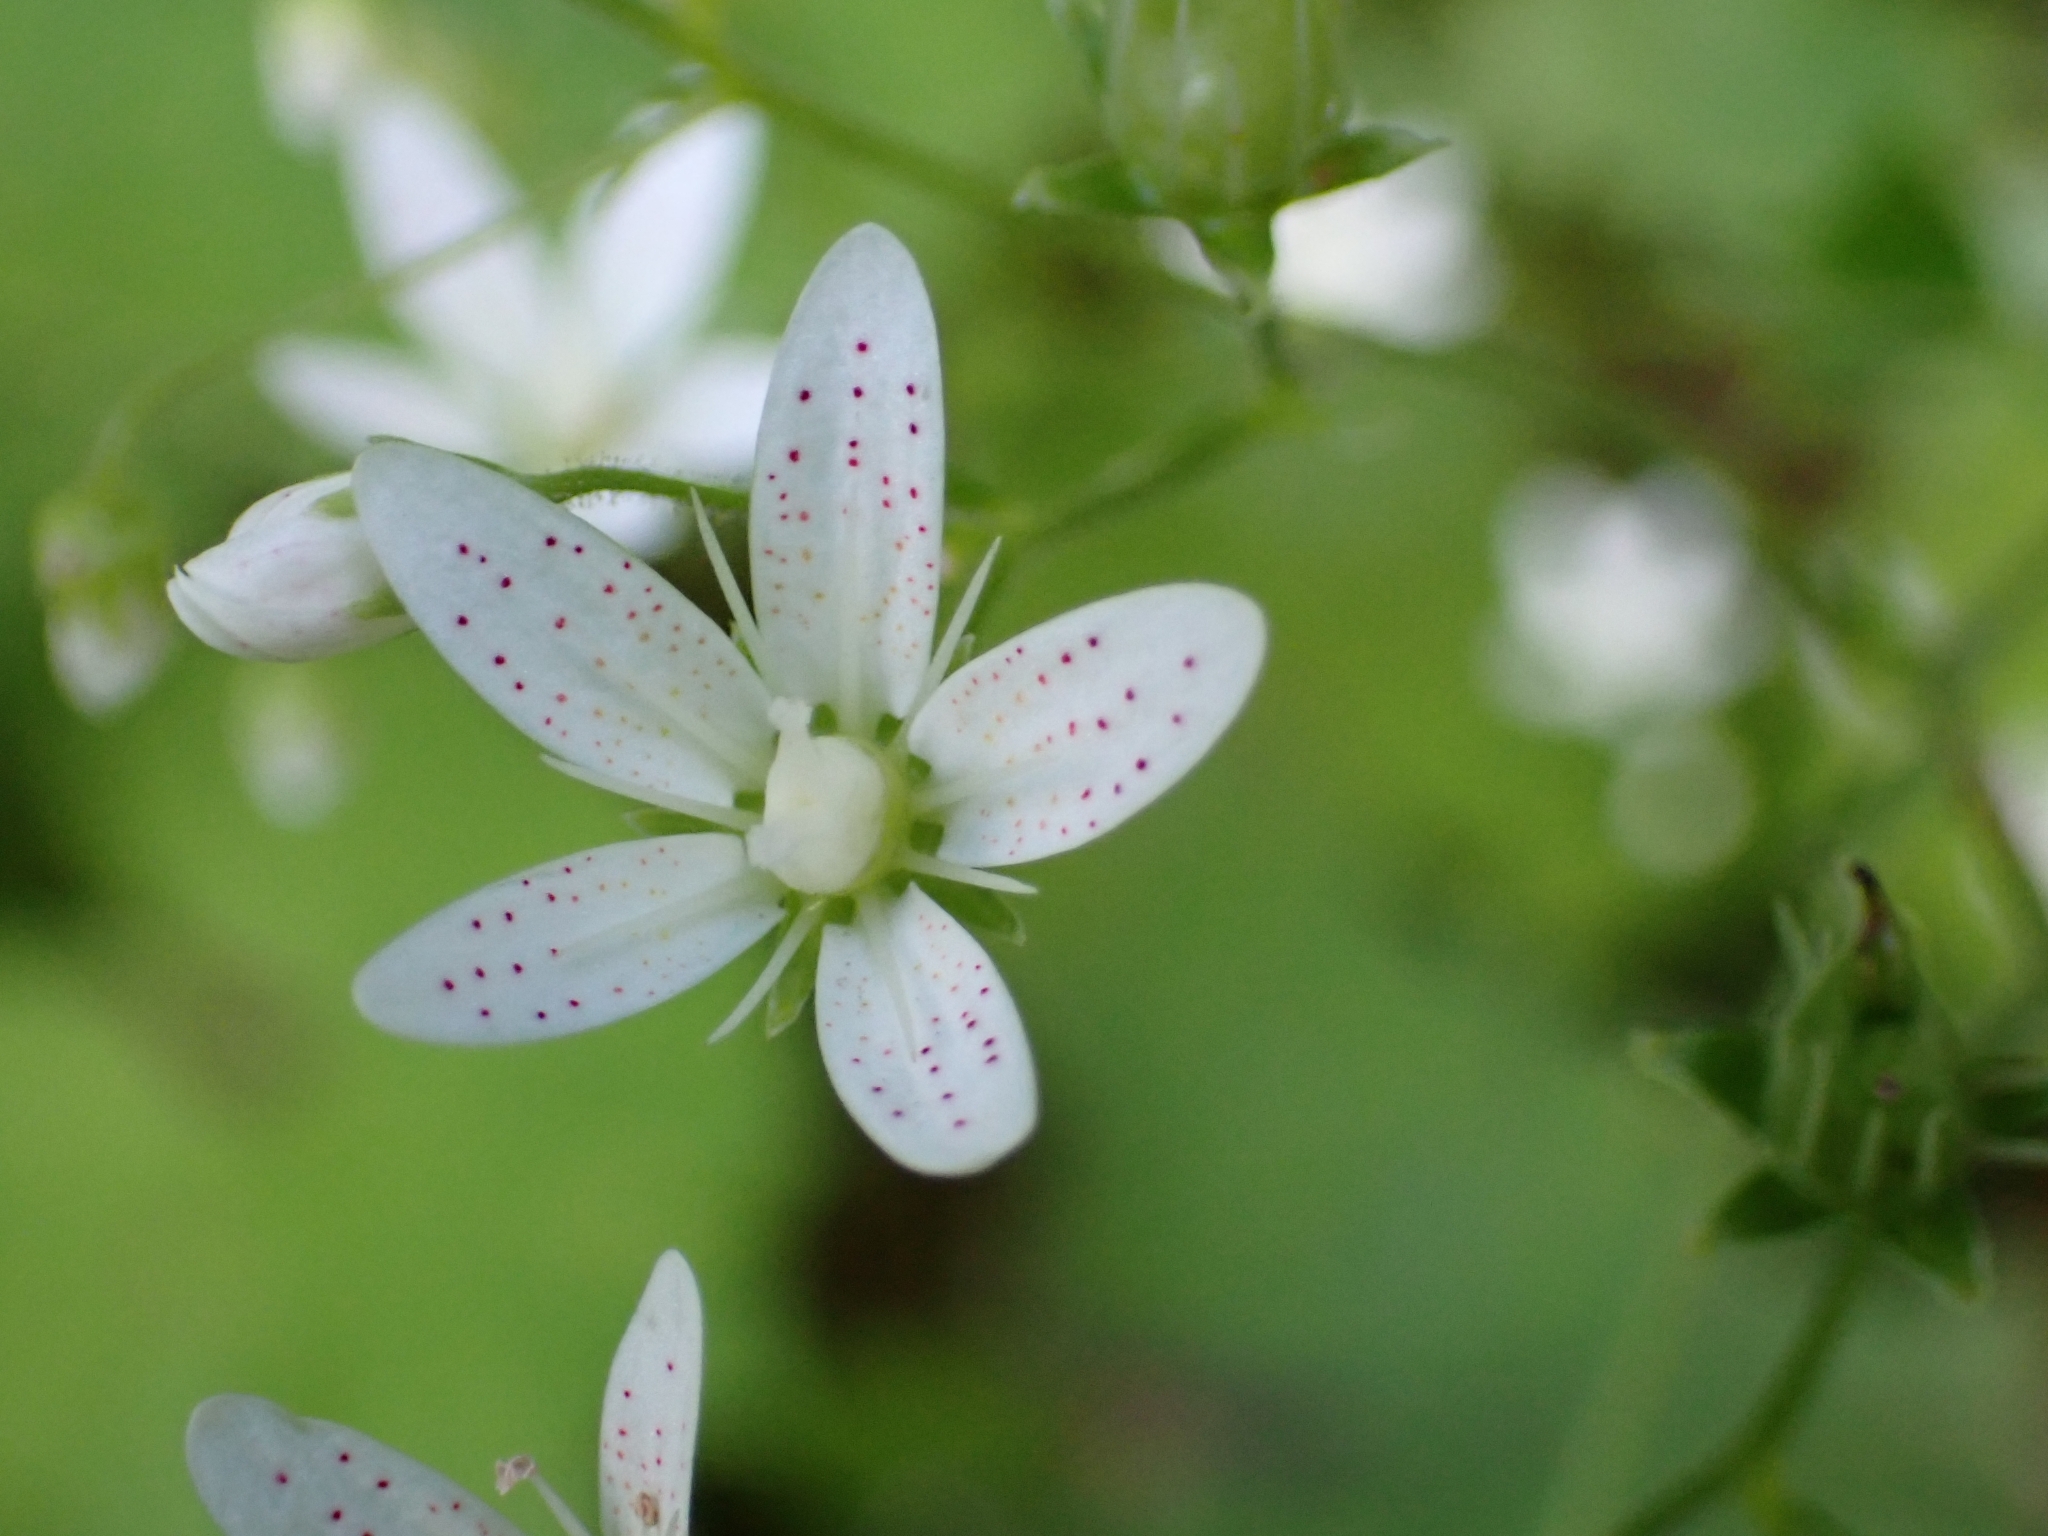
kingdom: Plantae
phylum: Tracheophyta
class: Magnoliopsida
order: Saxifragales
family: Saxifragaceae
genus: Saxifraga
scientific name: Saxifraga rotundifolia
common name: Round-leaved saxifrage
